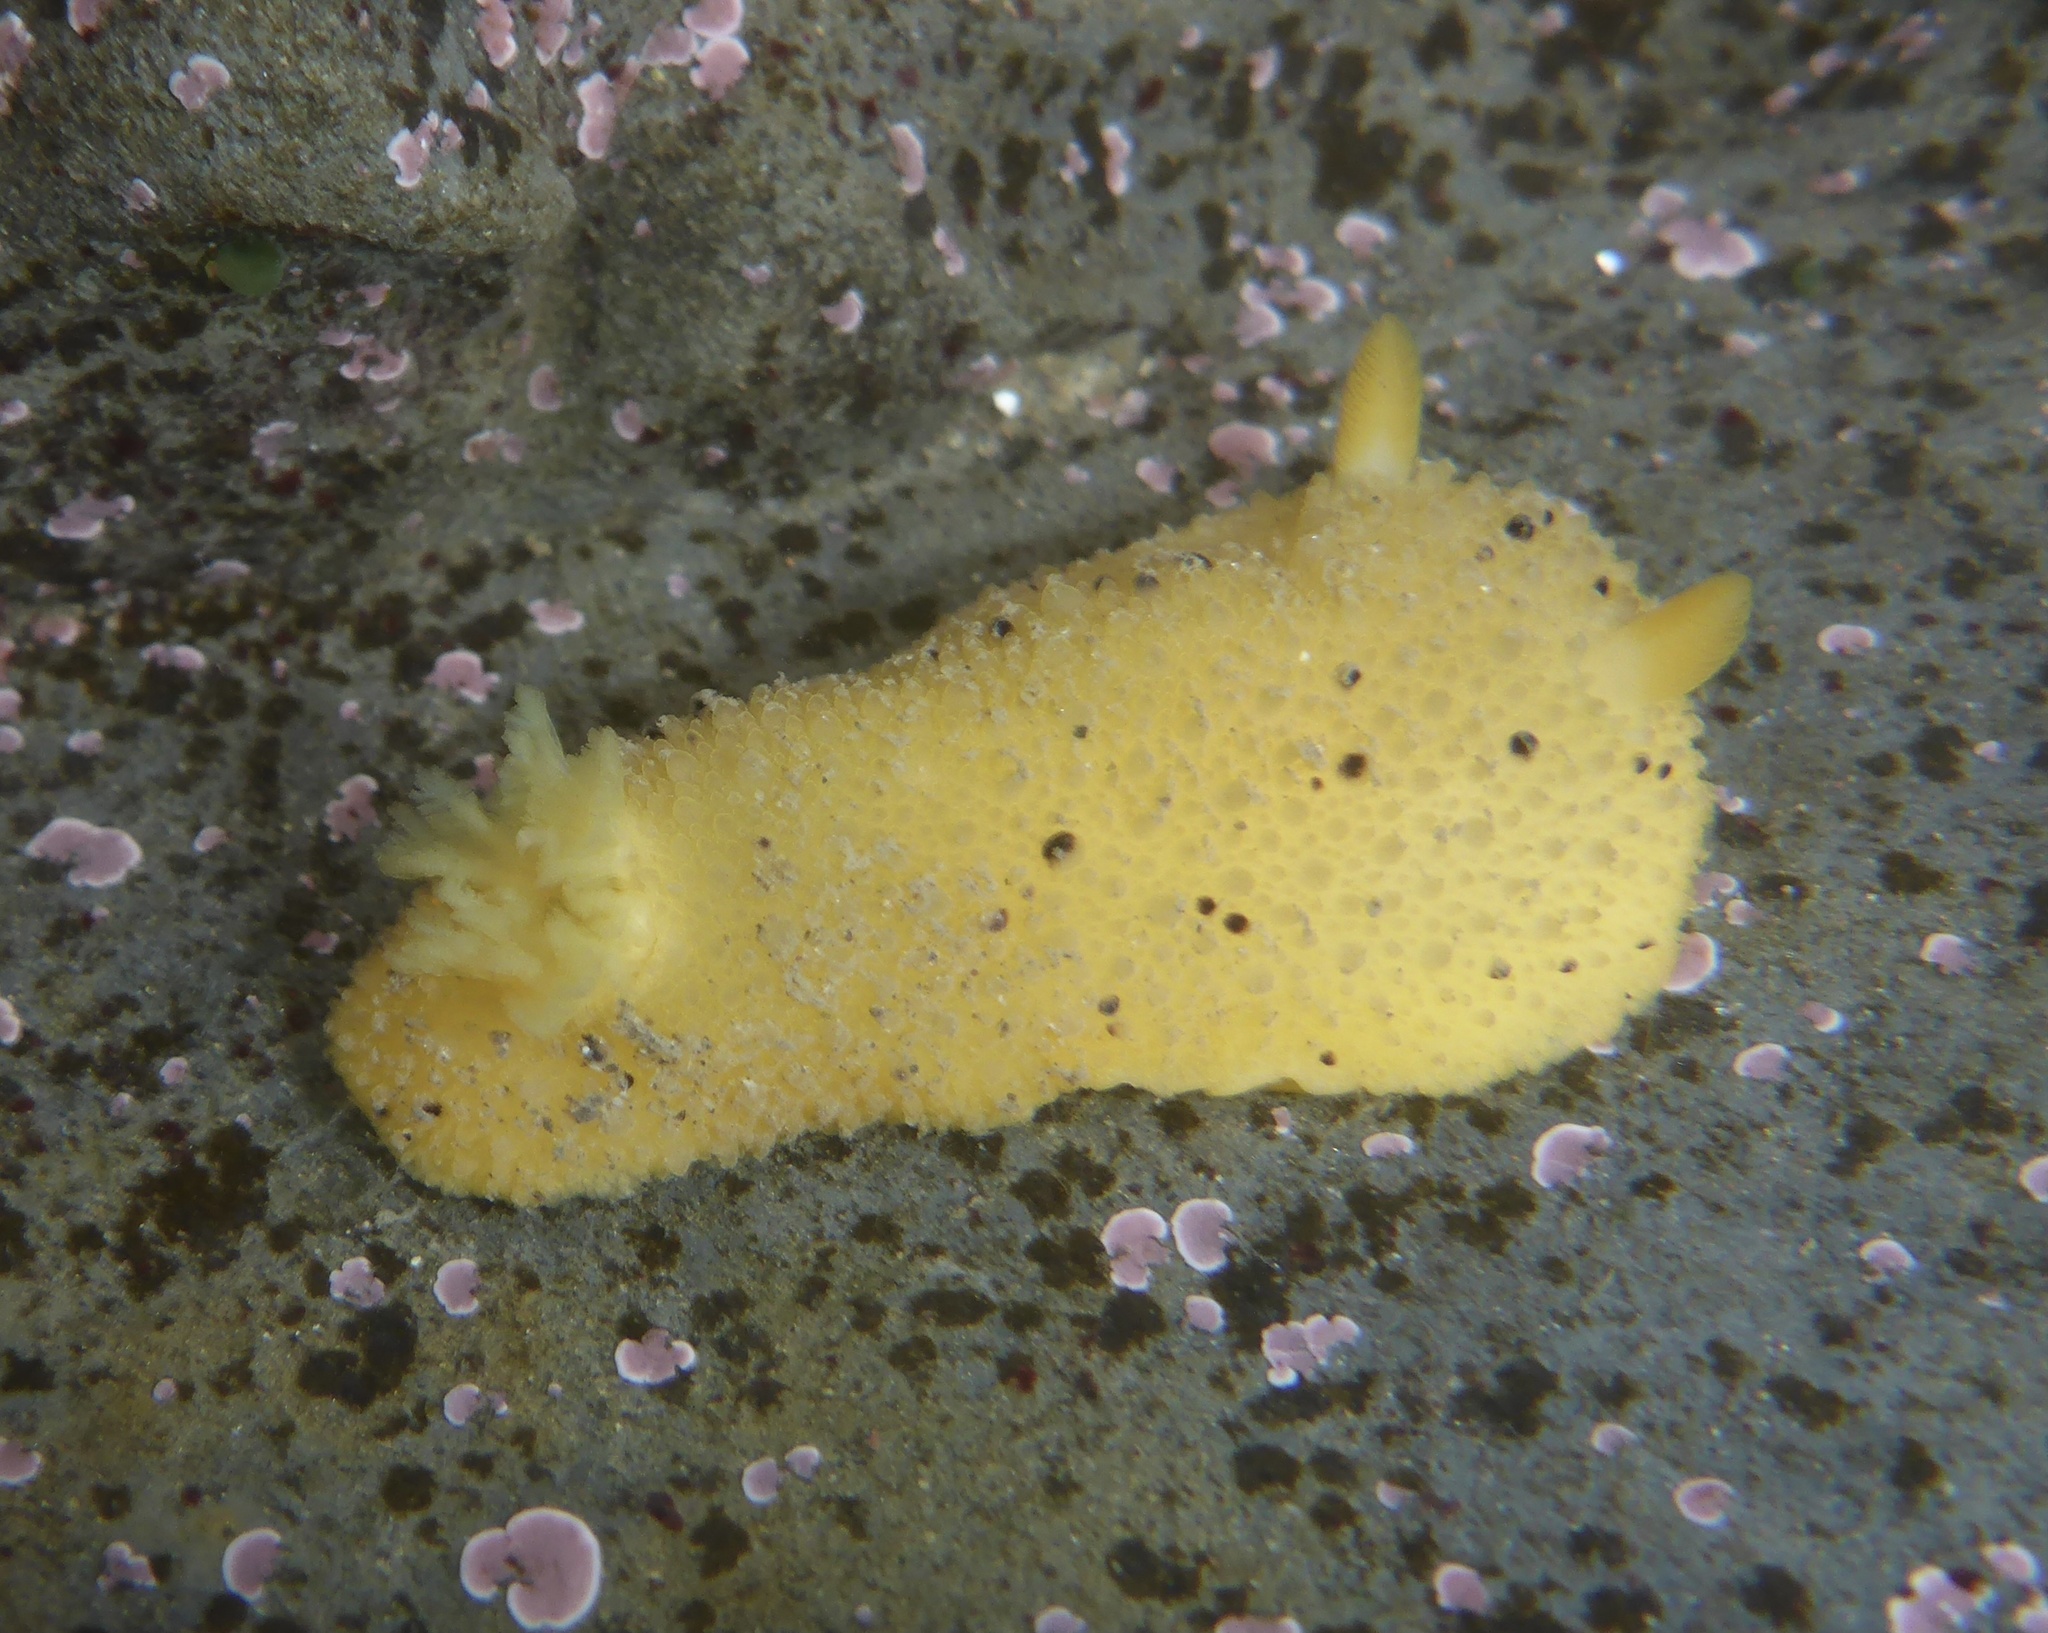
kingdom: Animalia
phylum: Mollusca
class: Gastropoda
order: Nudibranchia
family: Dorididae
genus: Doris
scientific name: Doris montereyensis
